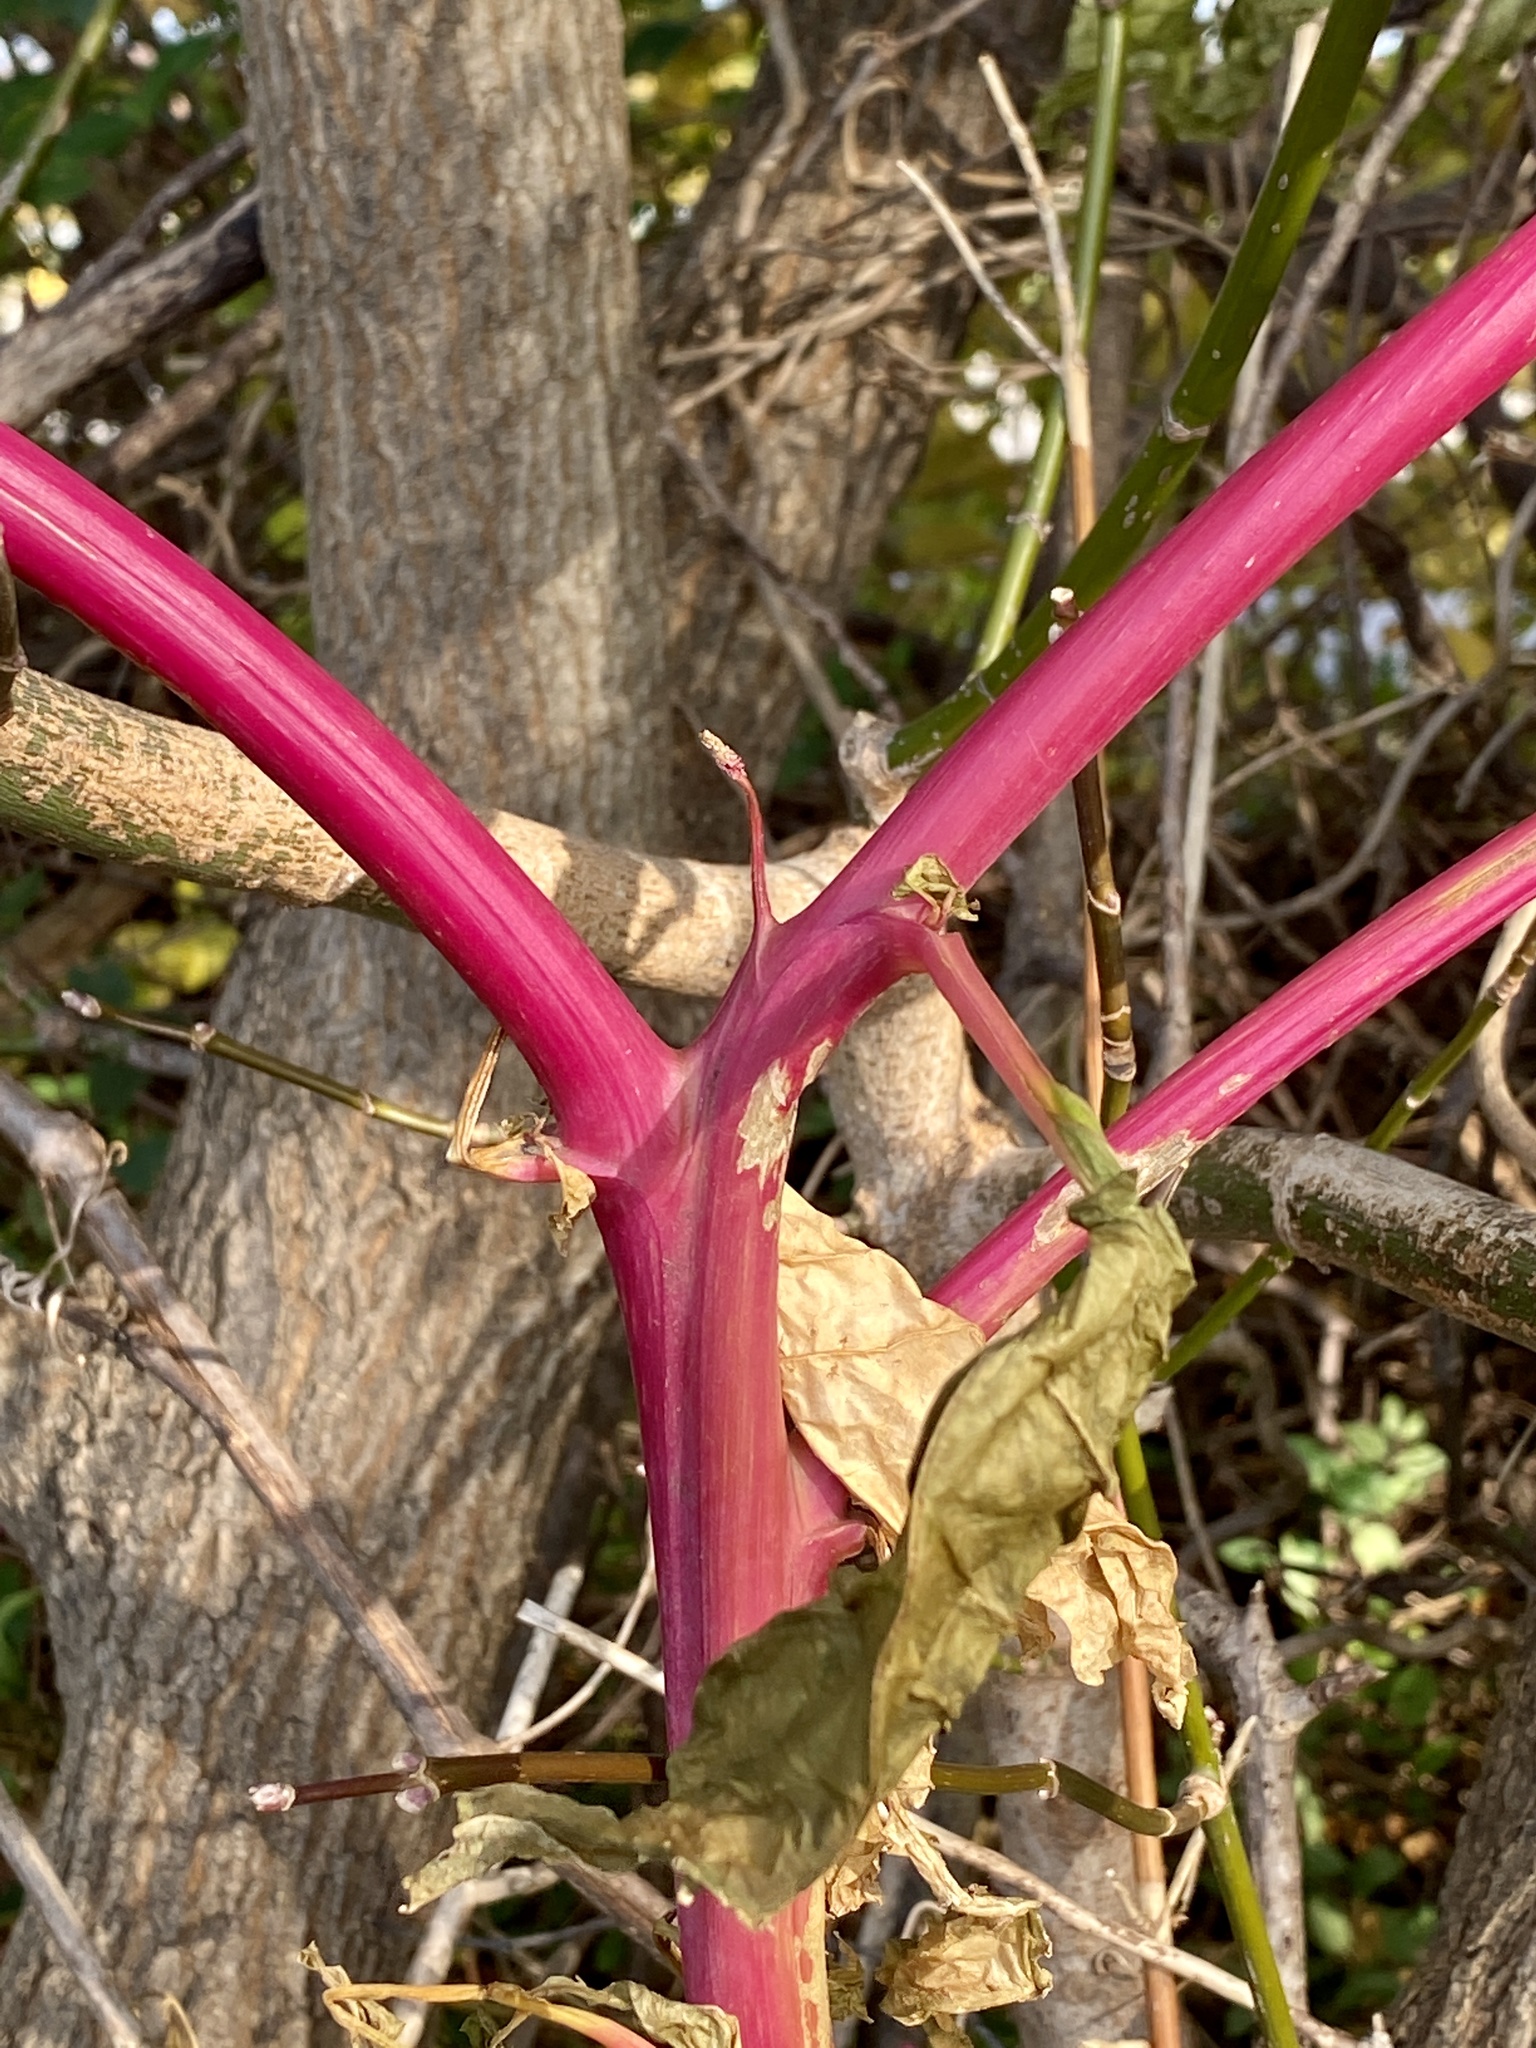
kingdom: Plantae
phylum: Tracheophyta
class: Magnoliopsida
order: Caryophyllales
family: Phytolaccaceae
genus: Phytolacca
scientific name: Phytolacca americana
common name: American pokeweed
